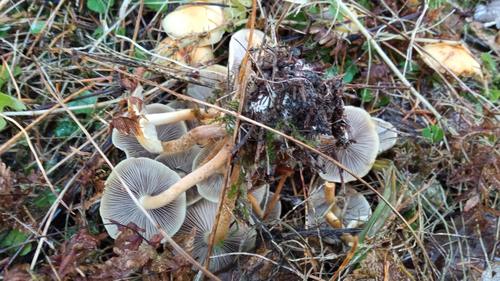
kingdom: Fungi
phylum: Basidiomycota
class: Agaricomycetes
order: Agaricales
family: Strophariaceae
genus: Hypholoma
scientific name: Hypholoma capnoides
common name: Conifer tuft
